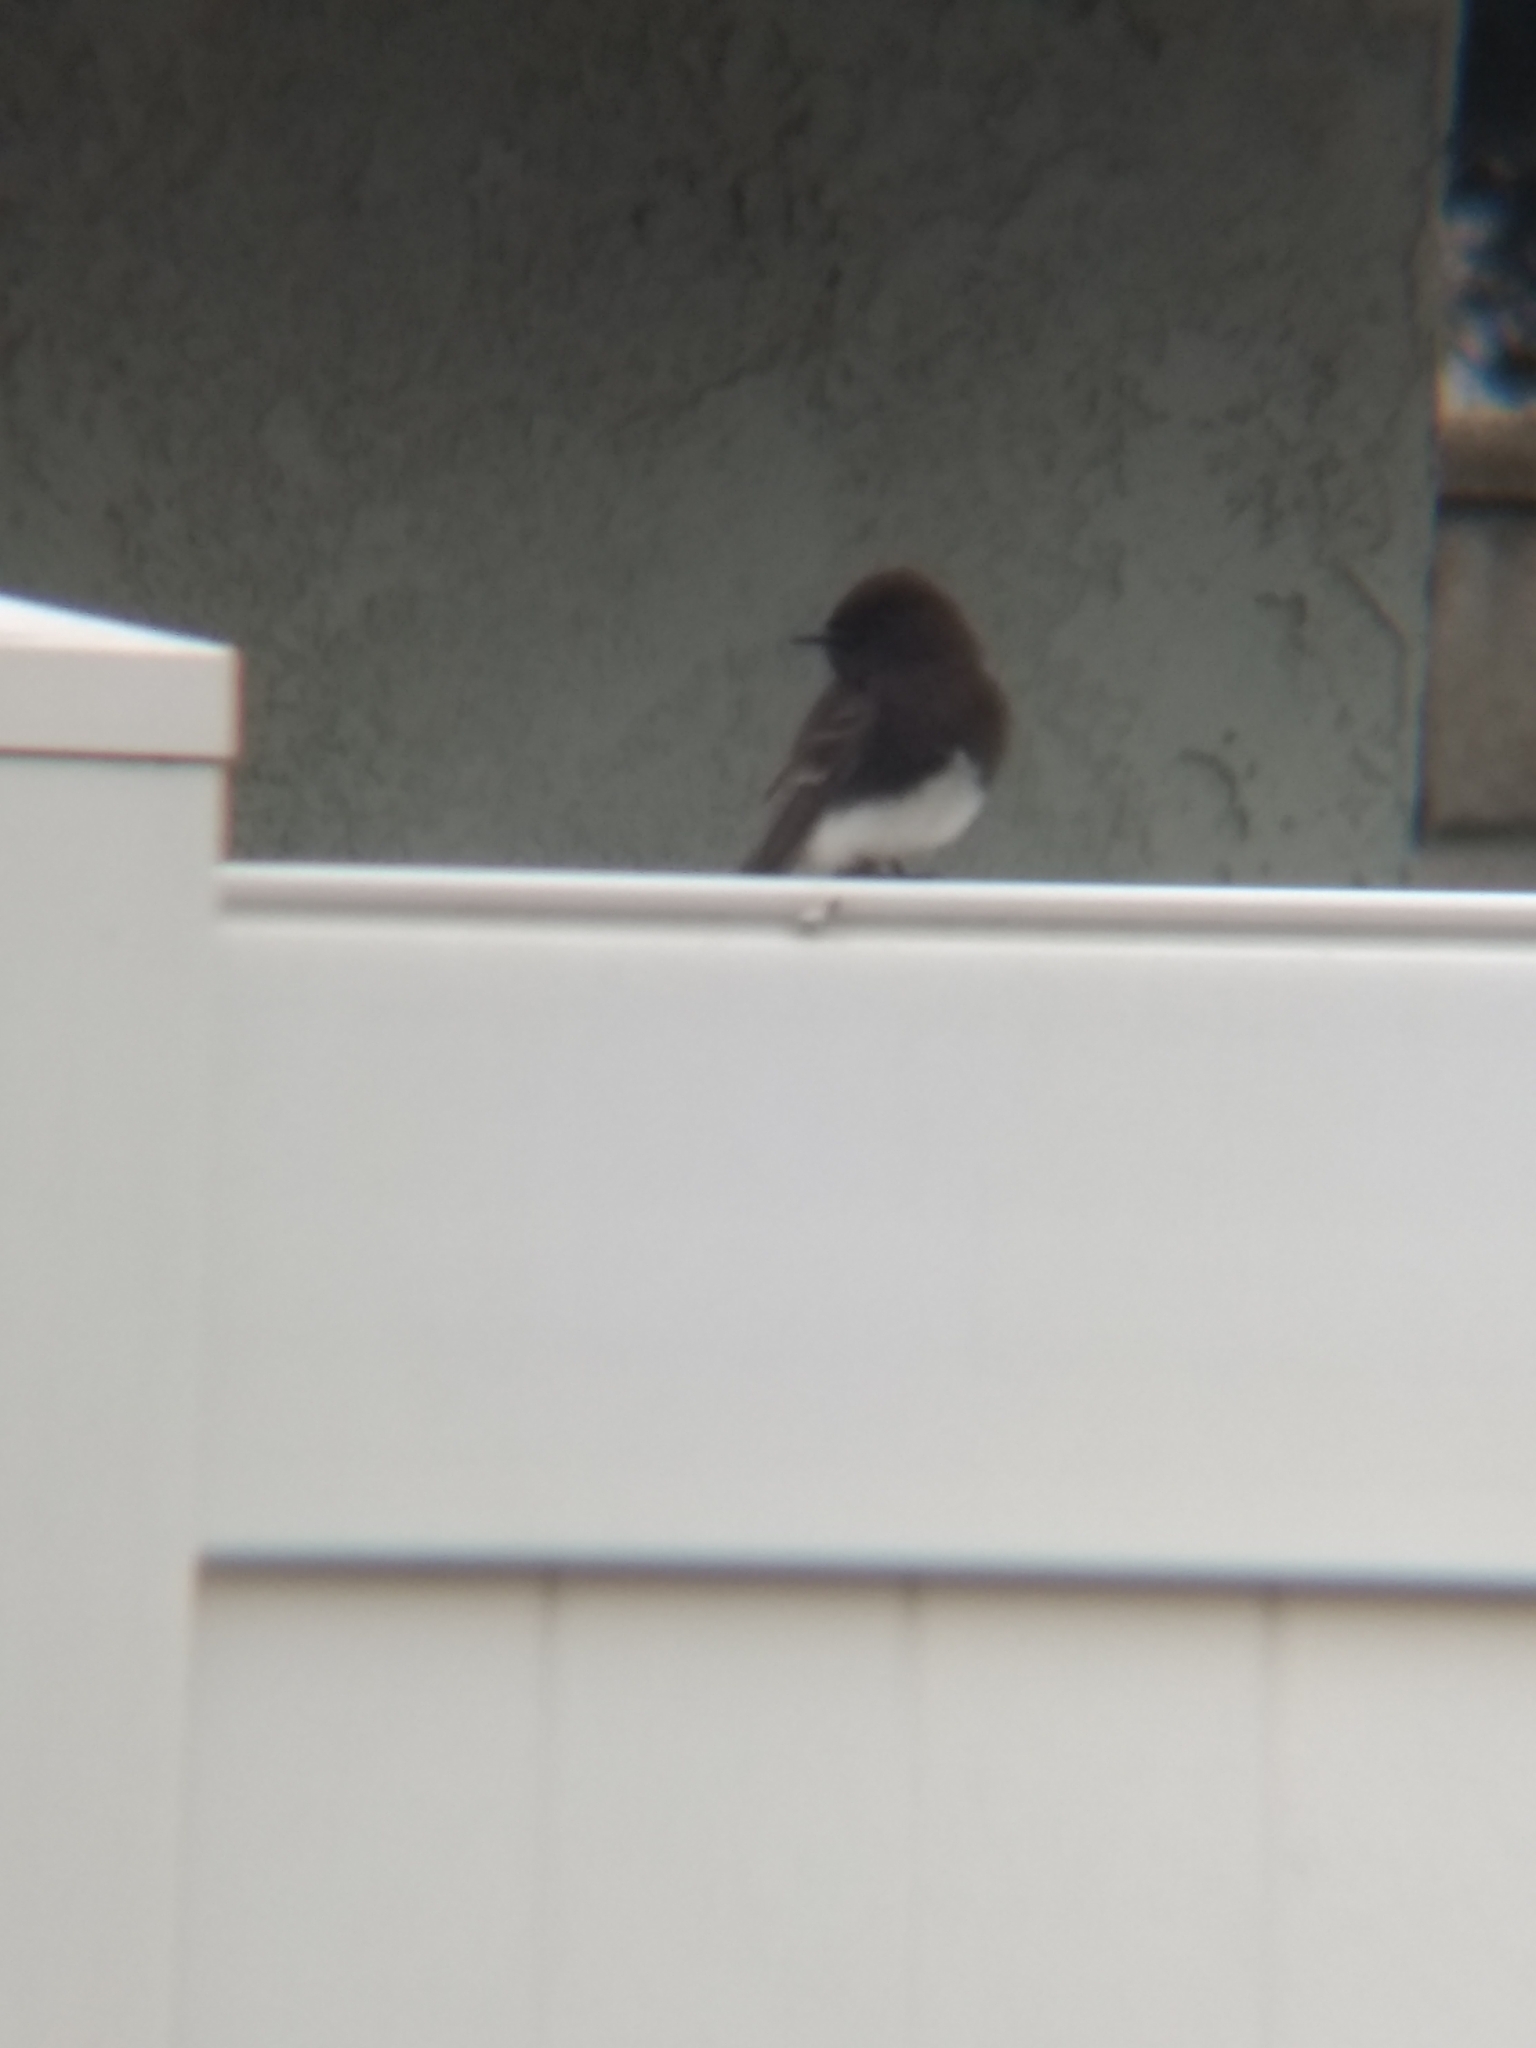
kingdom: Animalia
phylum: Chordata
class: Aves
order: Passeriformes
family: Tyrannidae
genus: Sayornis
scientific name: Sayornis nigricans
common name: Black phoebe
